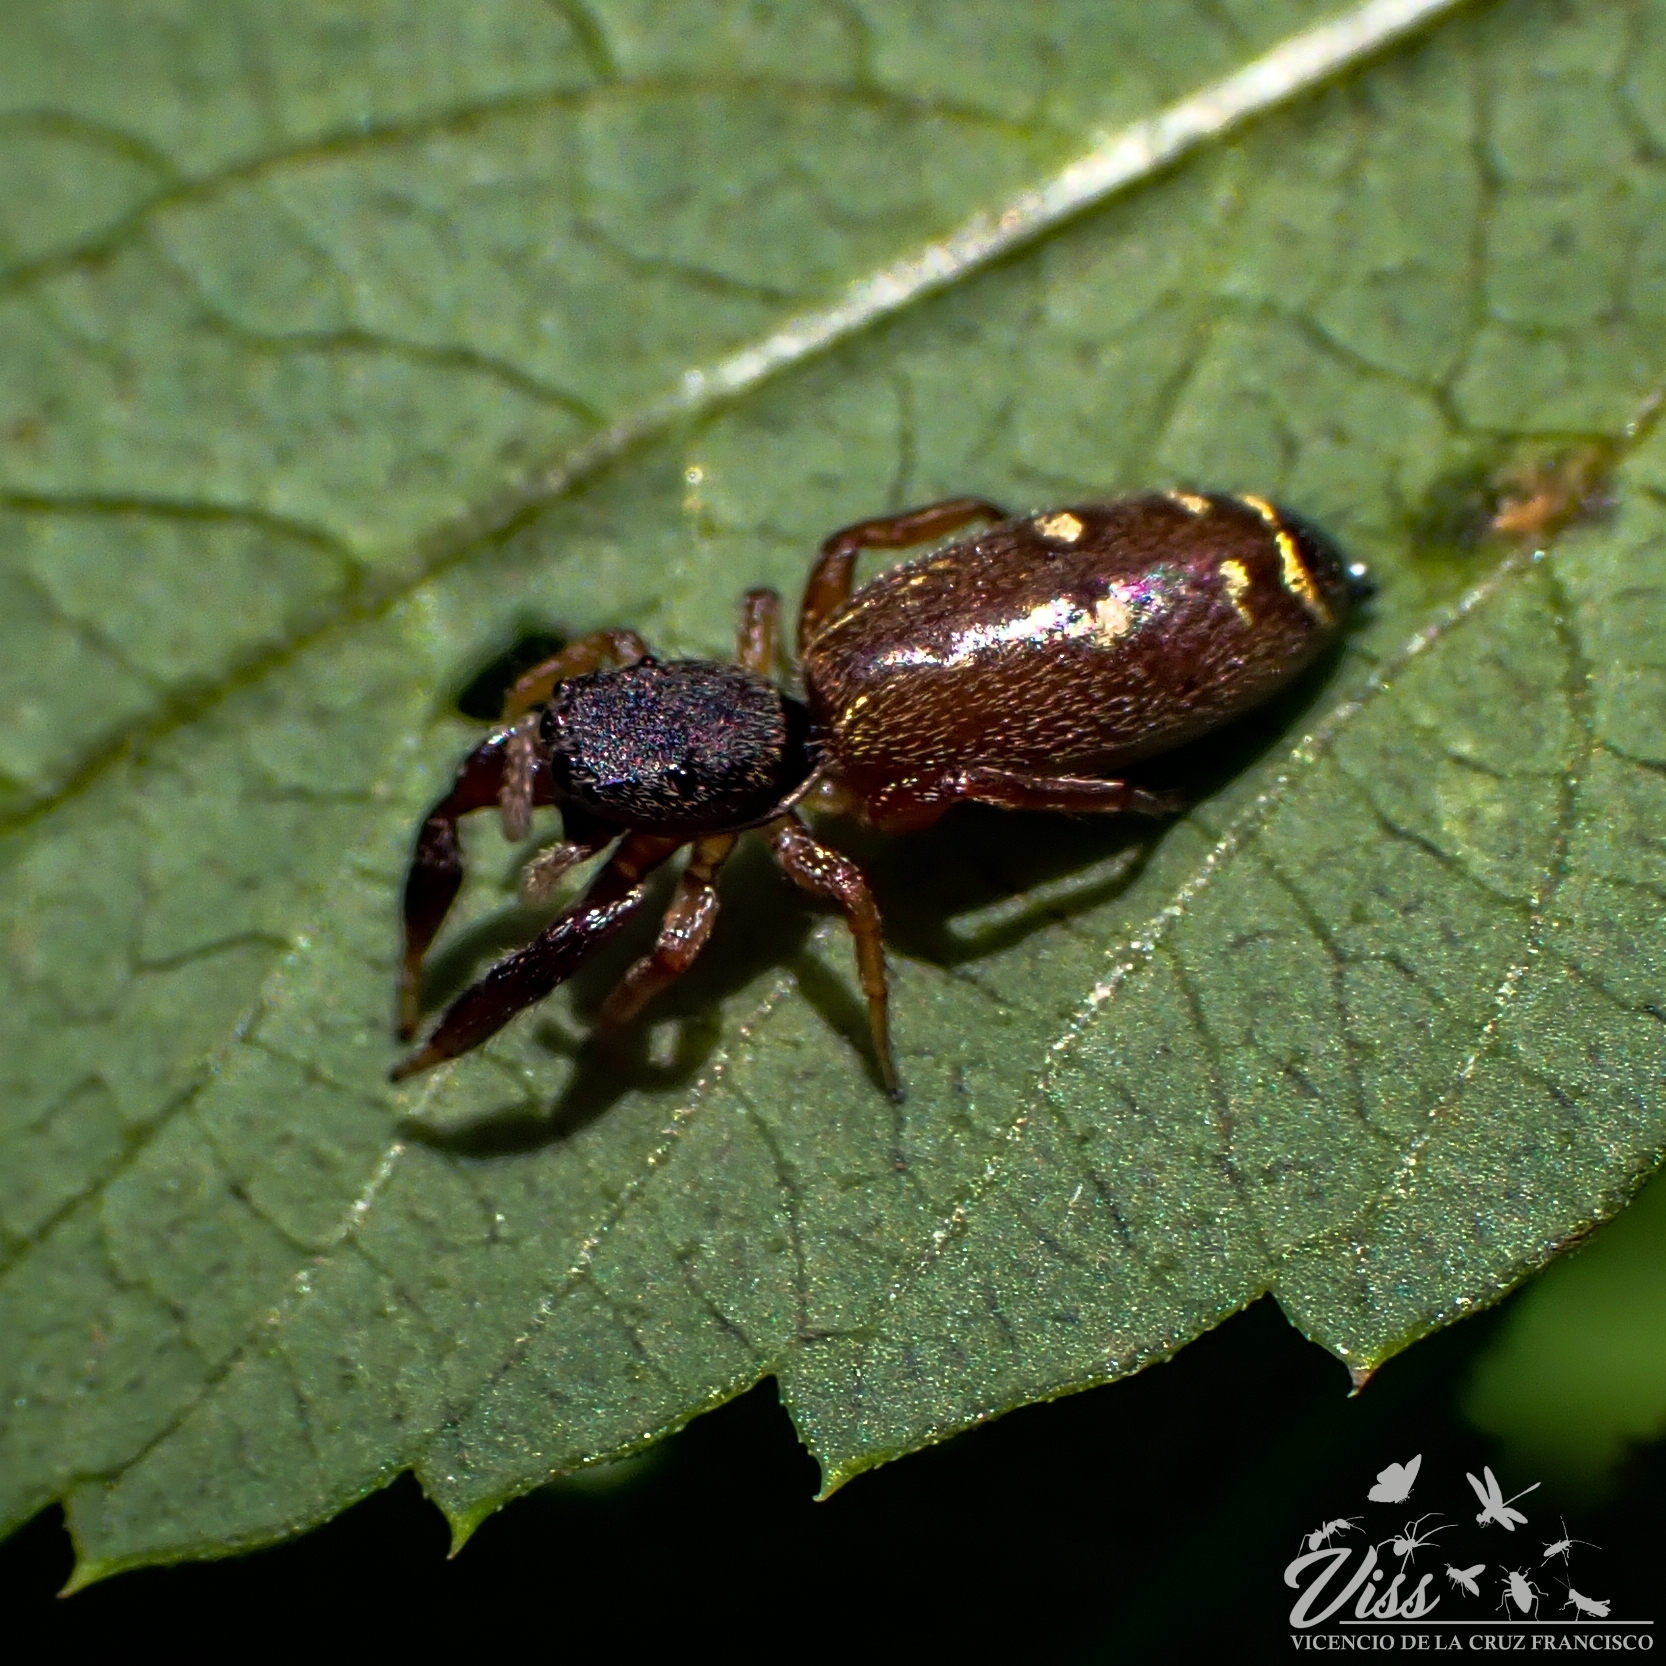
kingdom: Animalia
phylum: Arthropoda
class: Arachnida
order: Araneae
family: Salticidae
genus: Metacyrba
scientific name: Metacyrba punctata
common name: Jumping spiders
